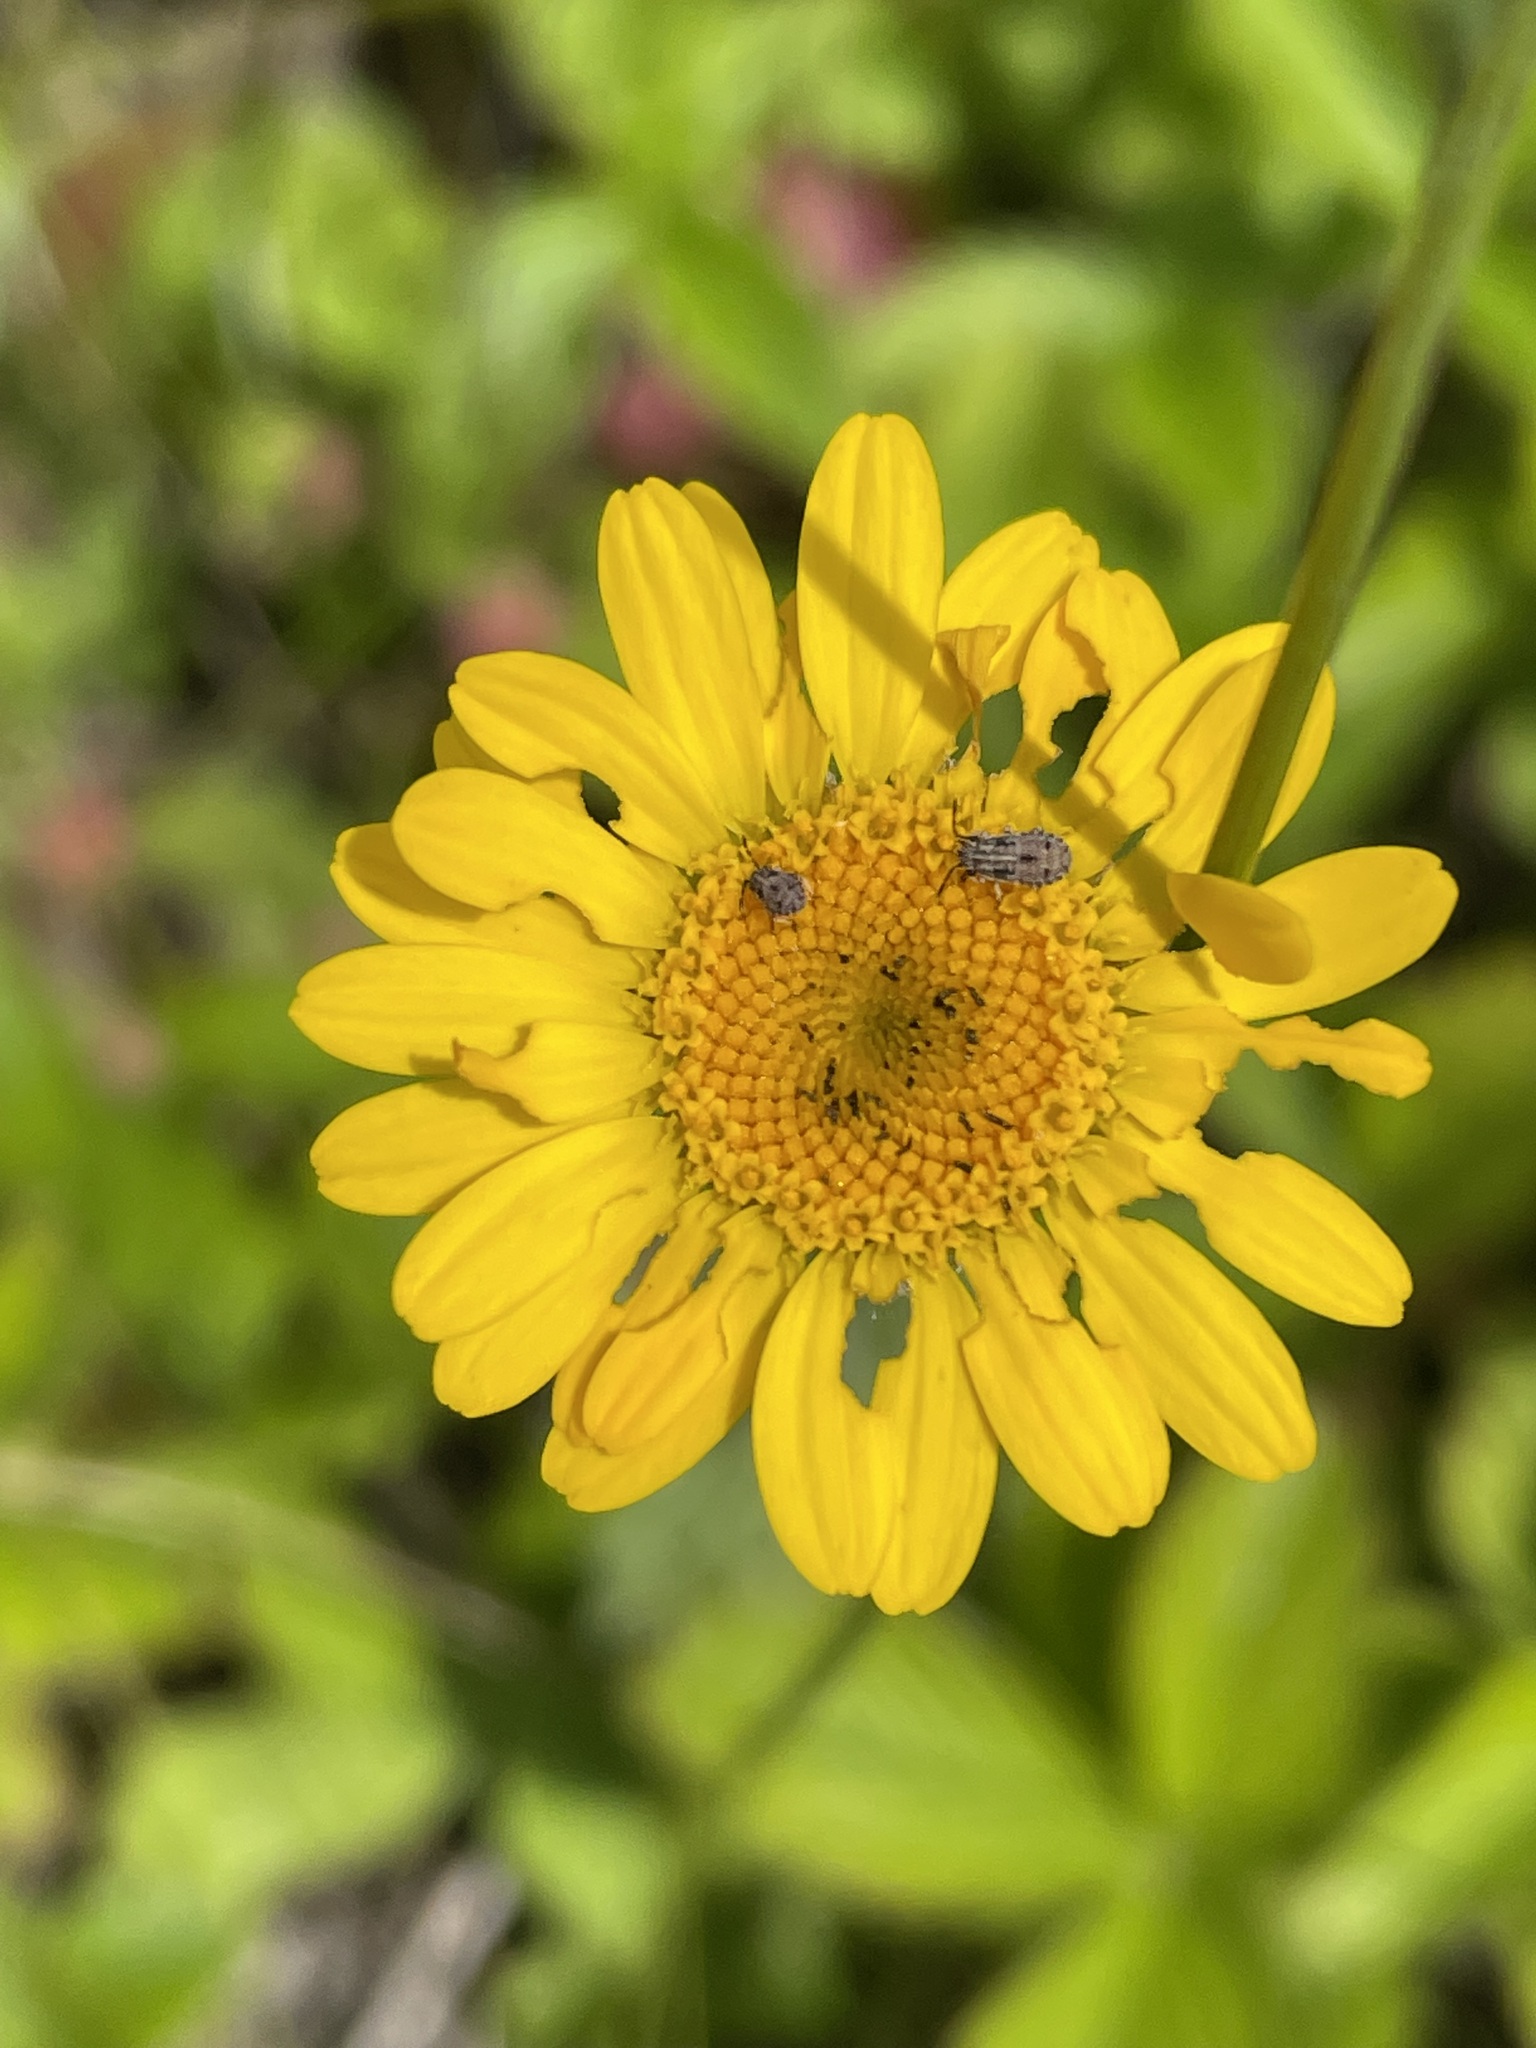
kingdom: Plantae
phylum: Tracheophyta
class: Magnoliopsida
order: Asterales
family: Asteraceae
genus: Cota
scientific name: Cota tinctoria
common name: Golden chamomile
